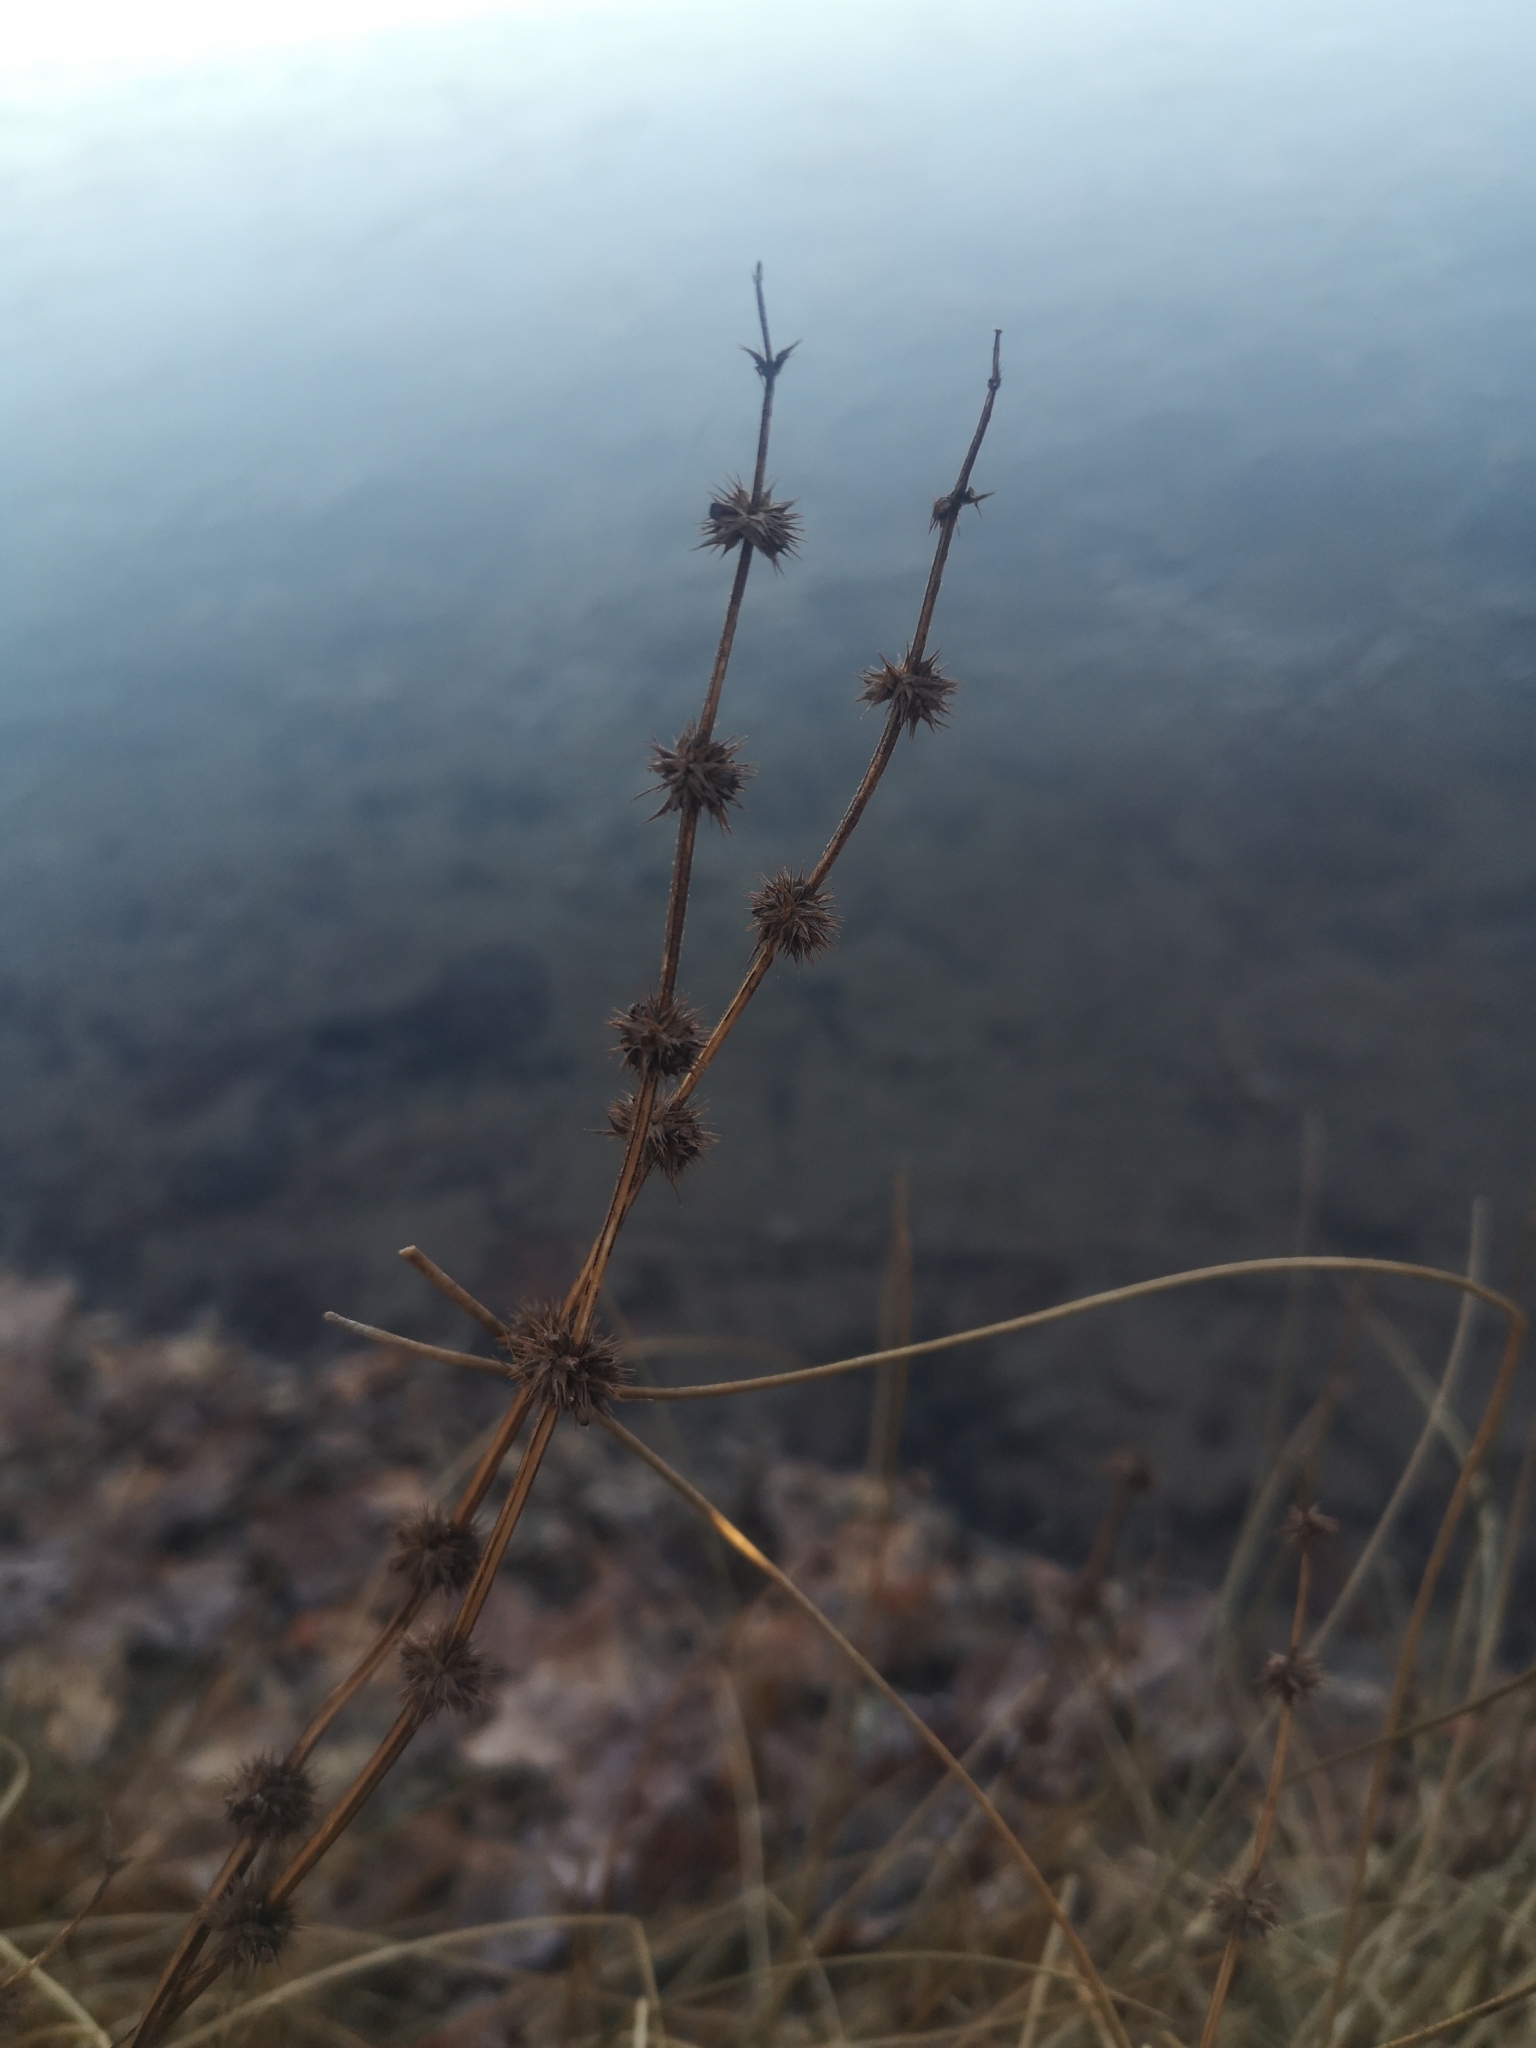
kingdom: Plantae
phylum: Tracheophyta
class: Magnoliopsida
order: Lamiales
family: Lamiaceae
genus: Lycopus
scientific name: Lycopus europaeus
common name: European bugleweed
